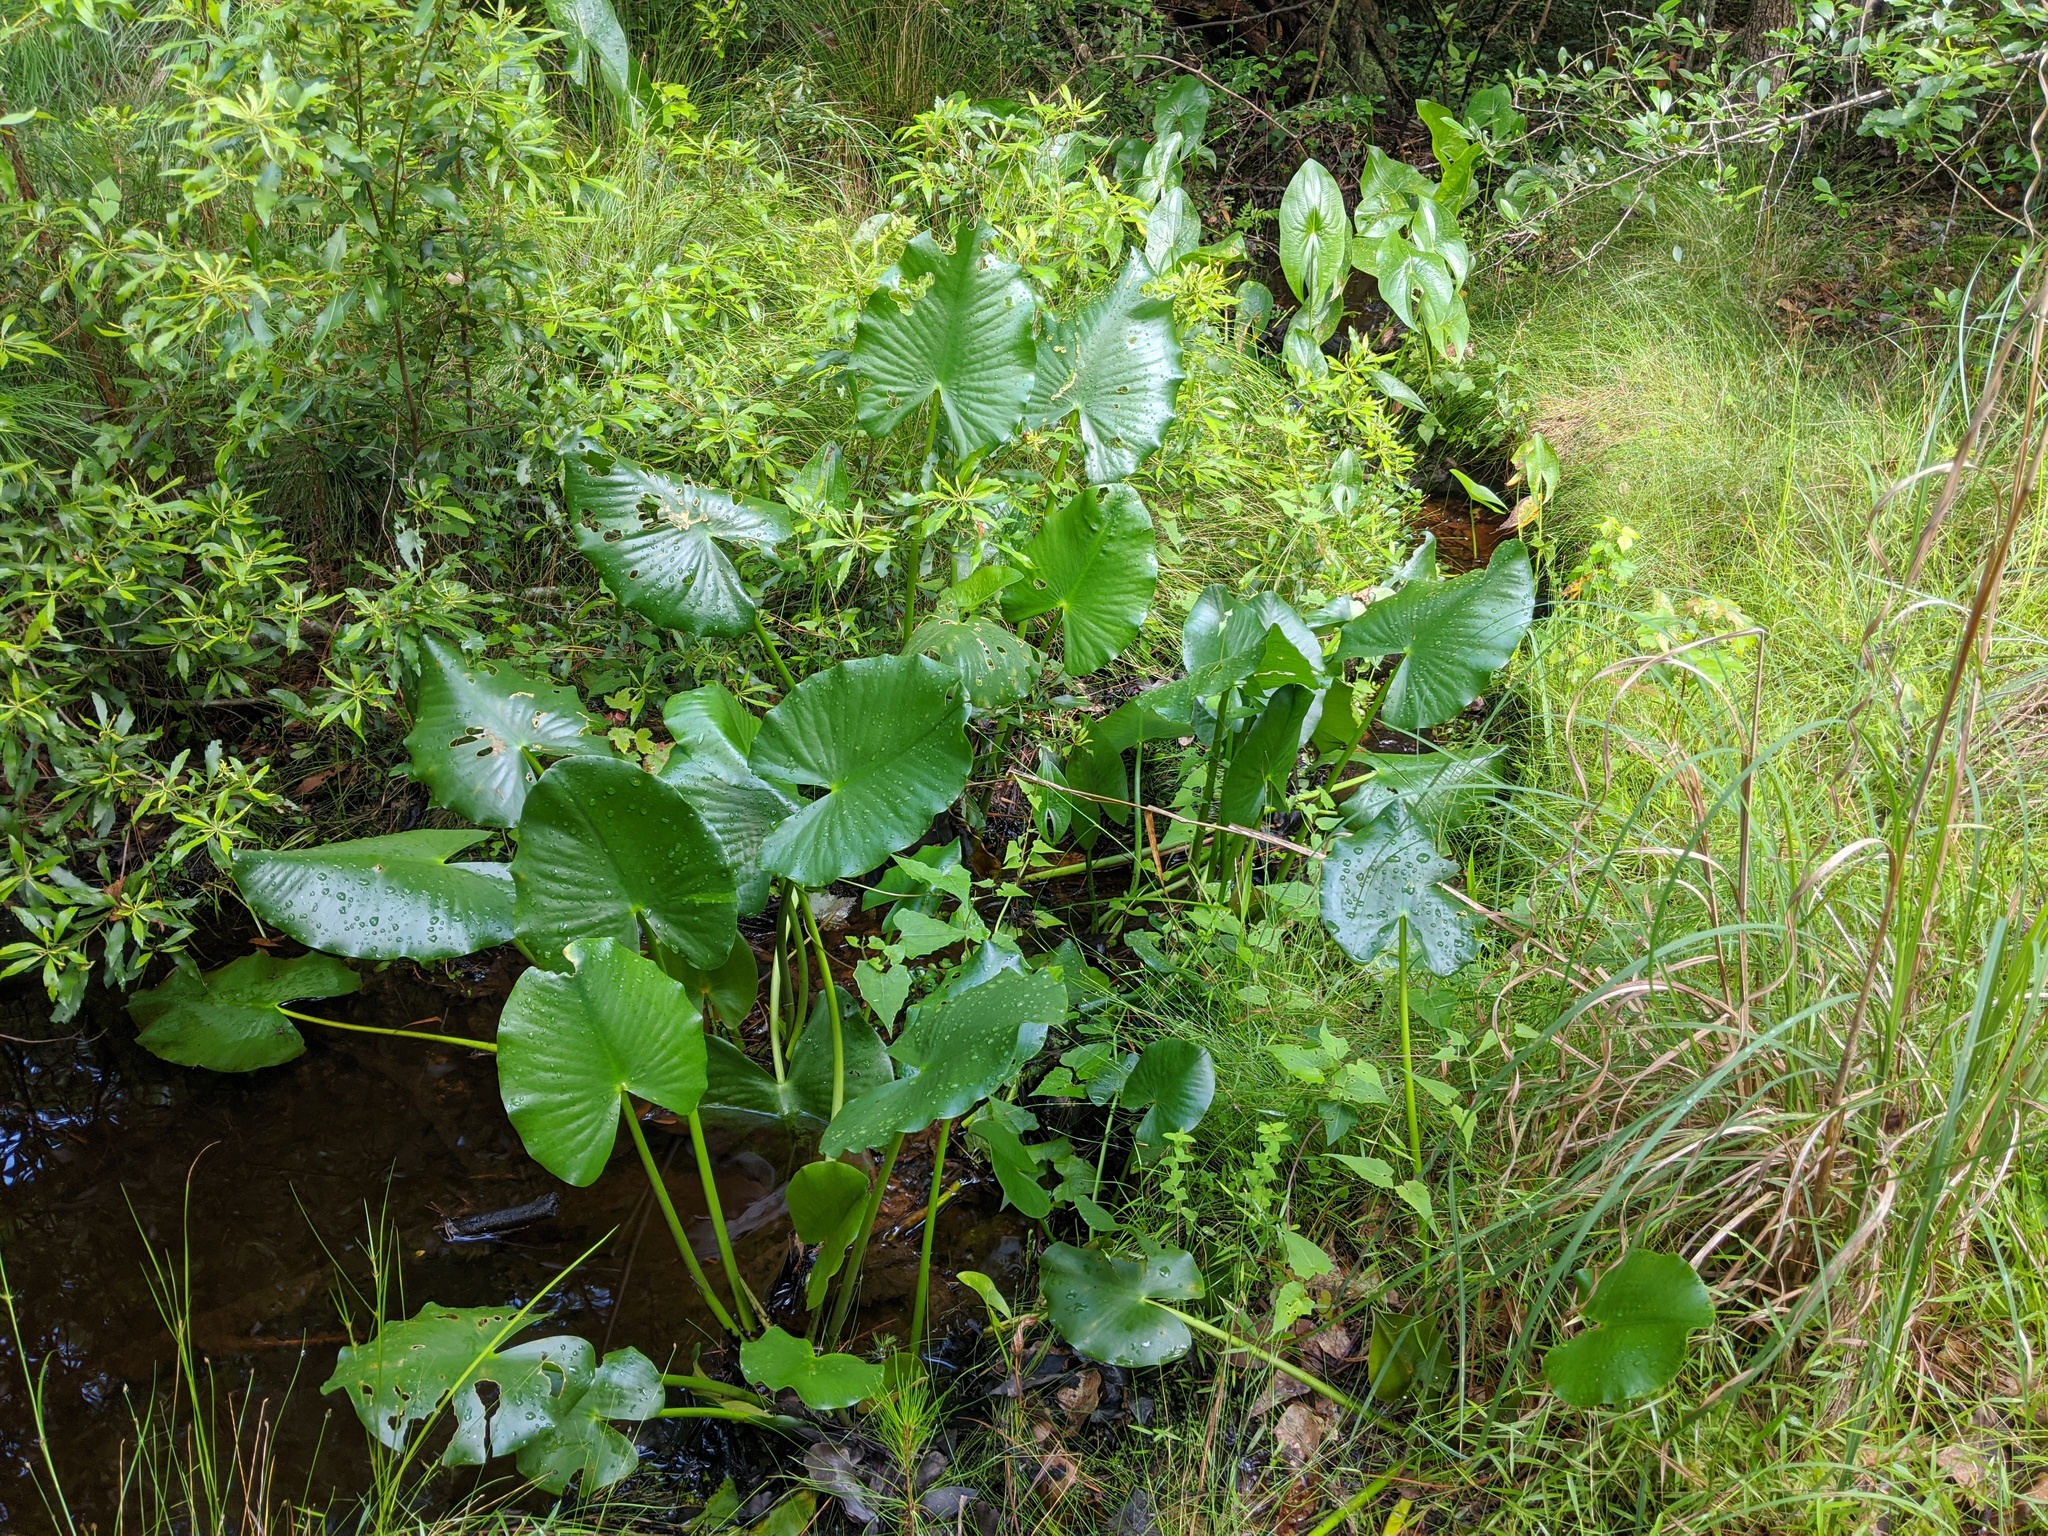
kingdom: Plantae
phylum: Tracheophyta
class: Magnoliopsida
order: Nymphaeales
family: Nymphaeaceae
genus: Nuphar
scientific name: Nuphar advena
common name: Spatter-dock
